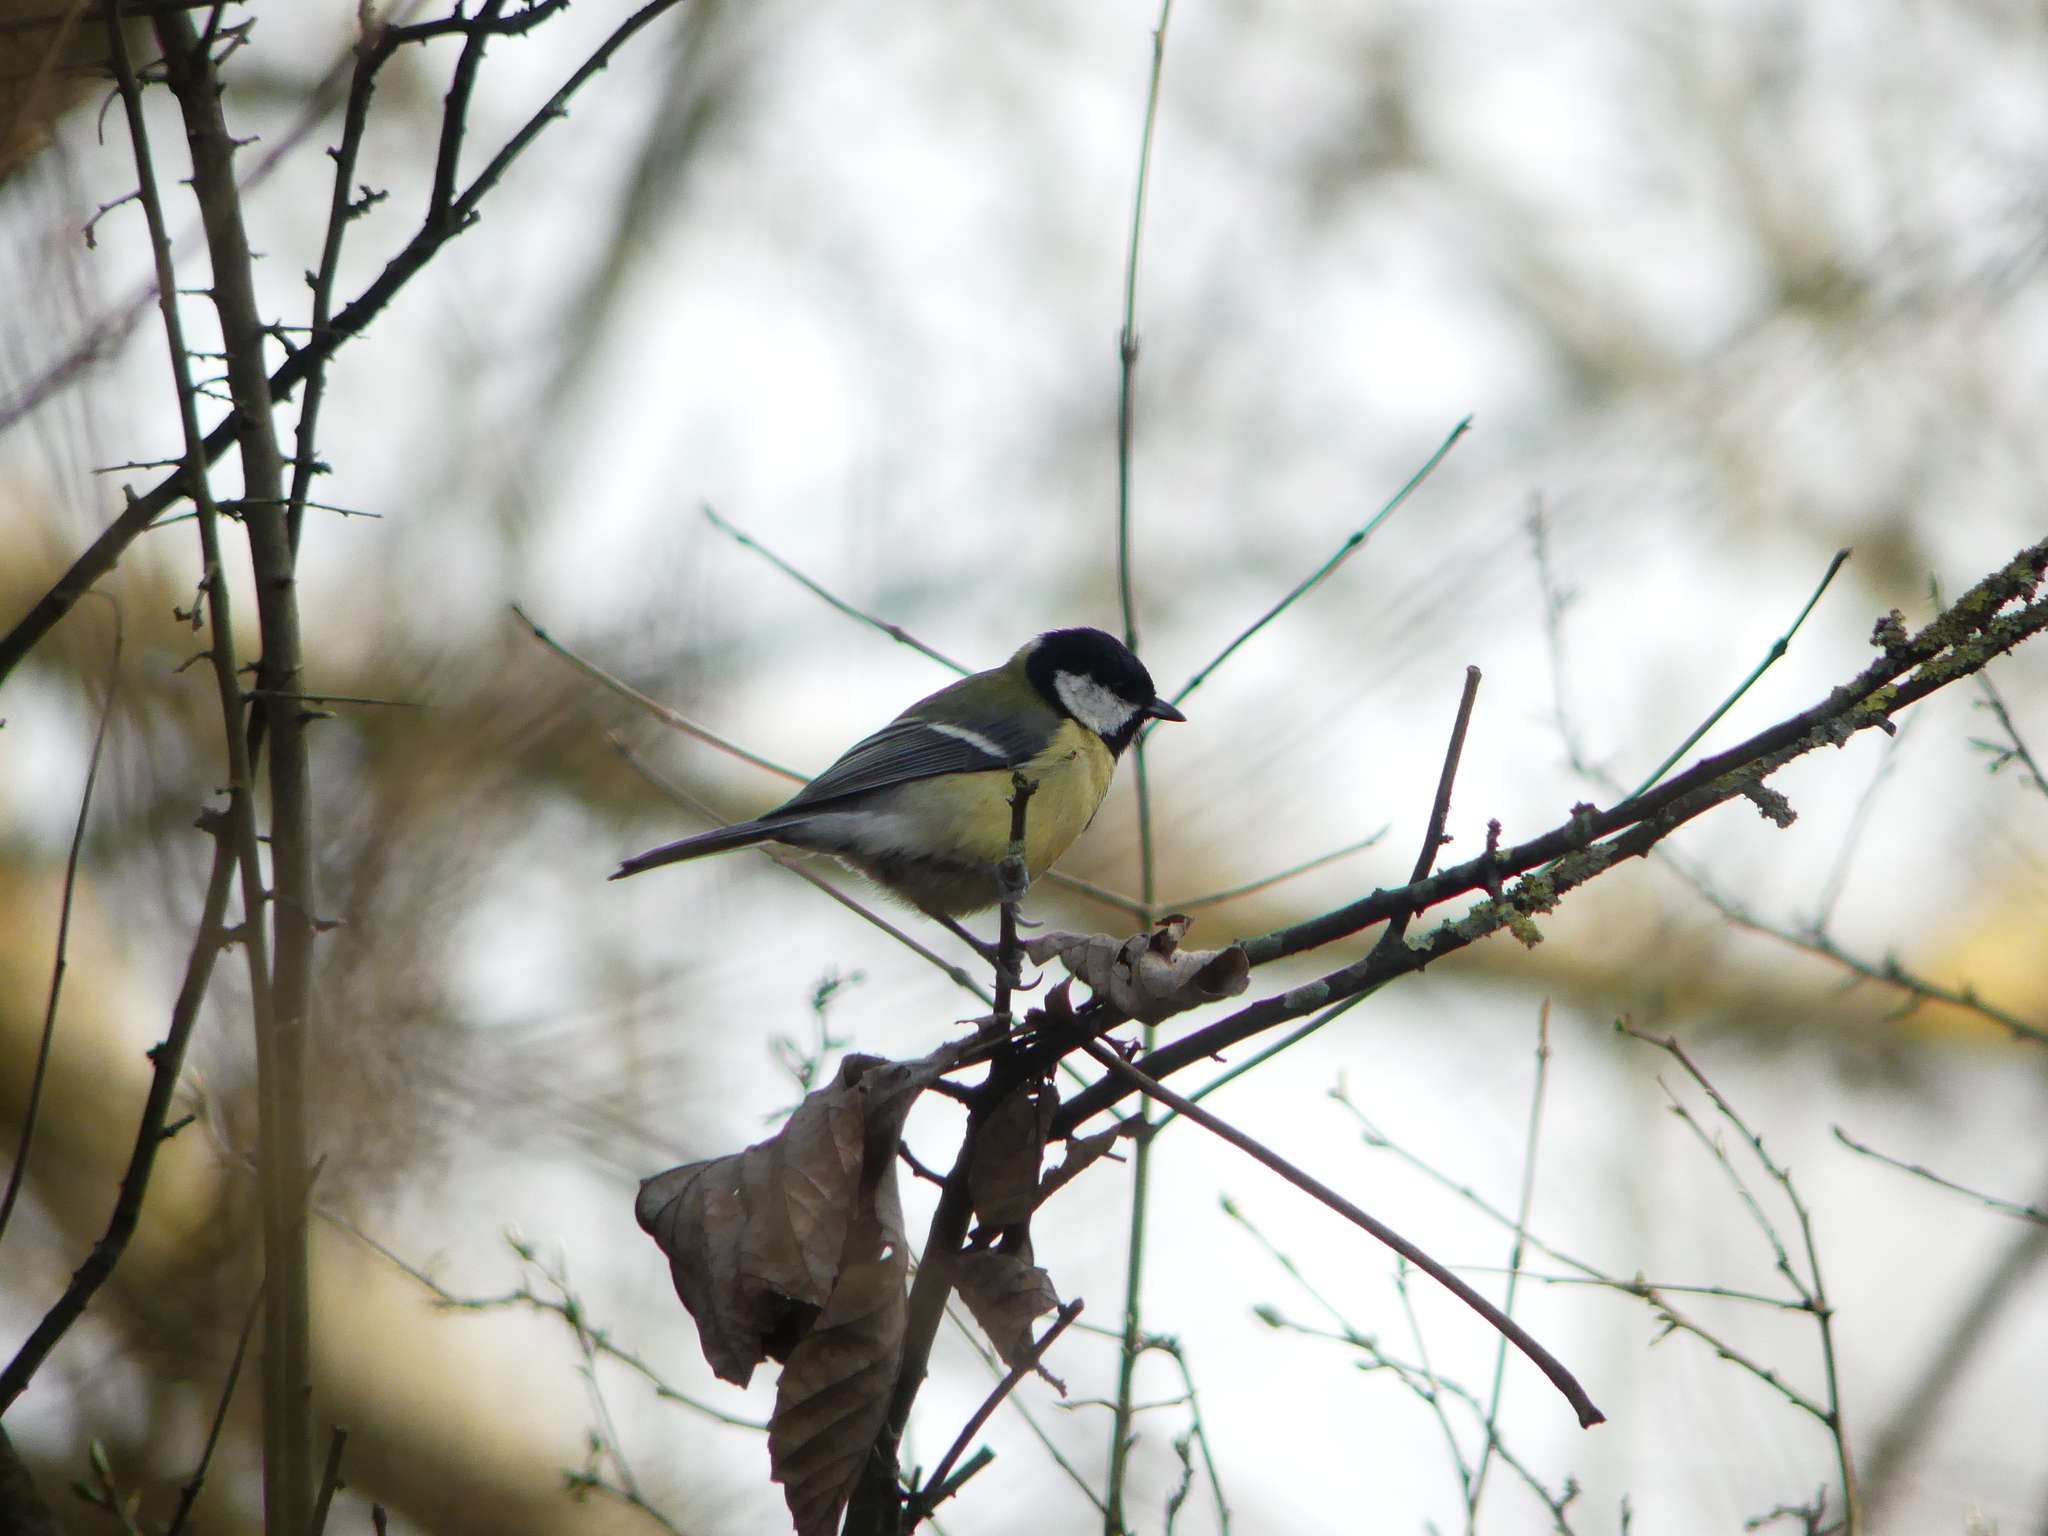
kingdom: Animalia
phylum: Chordata
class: Aves
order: Passeriformes
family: Paridae
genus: Parus
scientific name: Parus major
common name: Great tit
